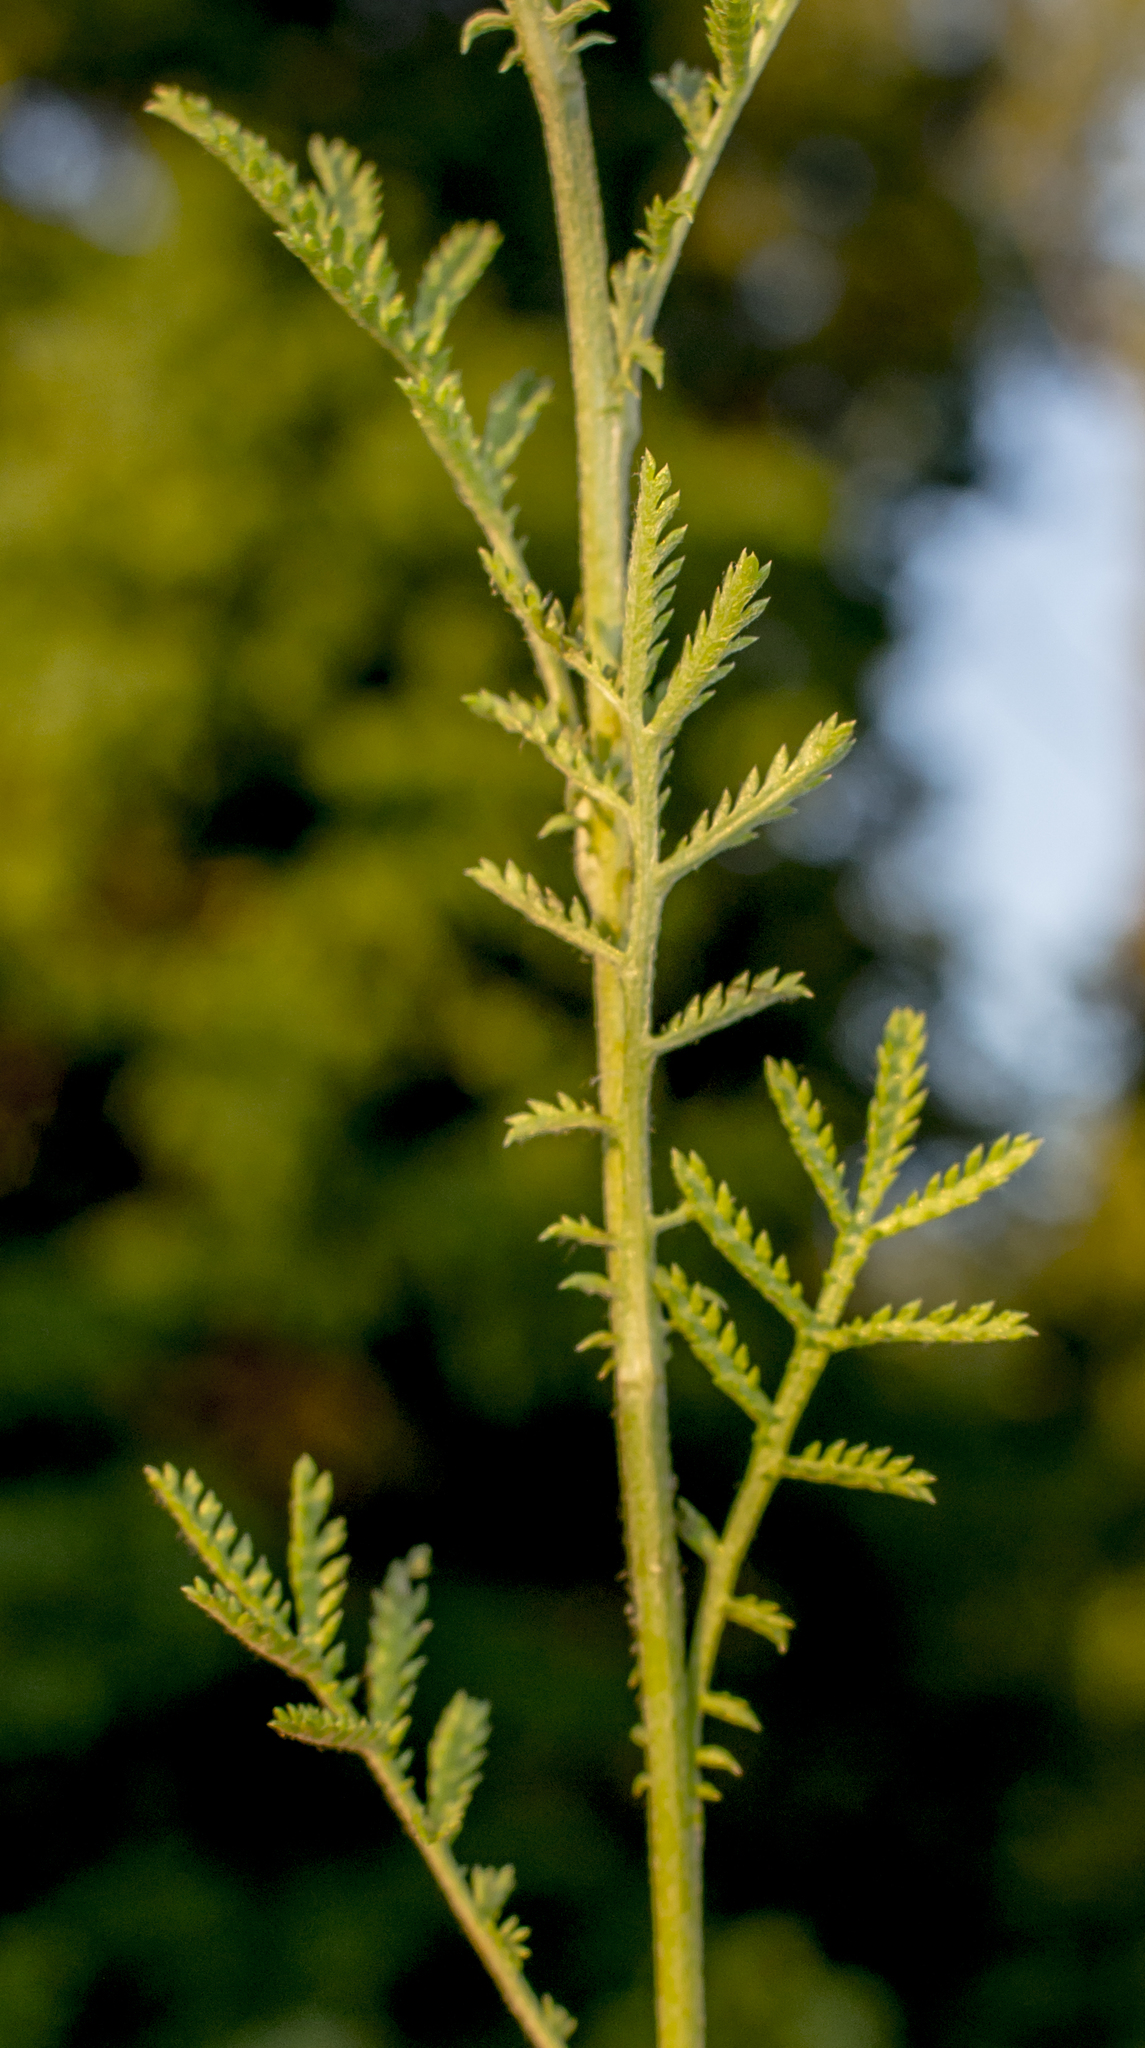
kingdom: Plantae
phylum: Tracheophyta
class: Magnoliopsida
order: Asterales
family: Asteraceae
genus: Cota
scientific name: Cota tinctoria
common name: Golden chamomile
